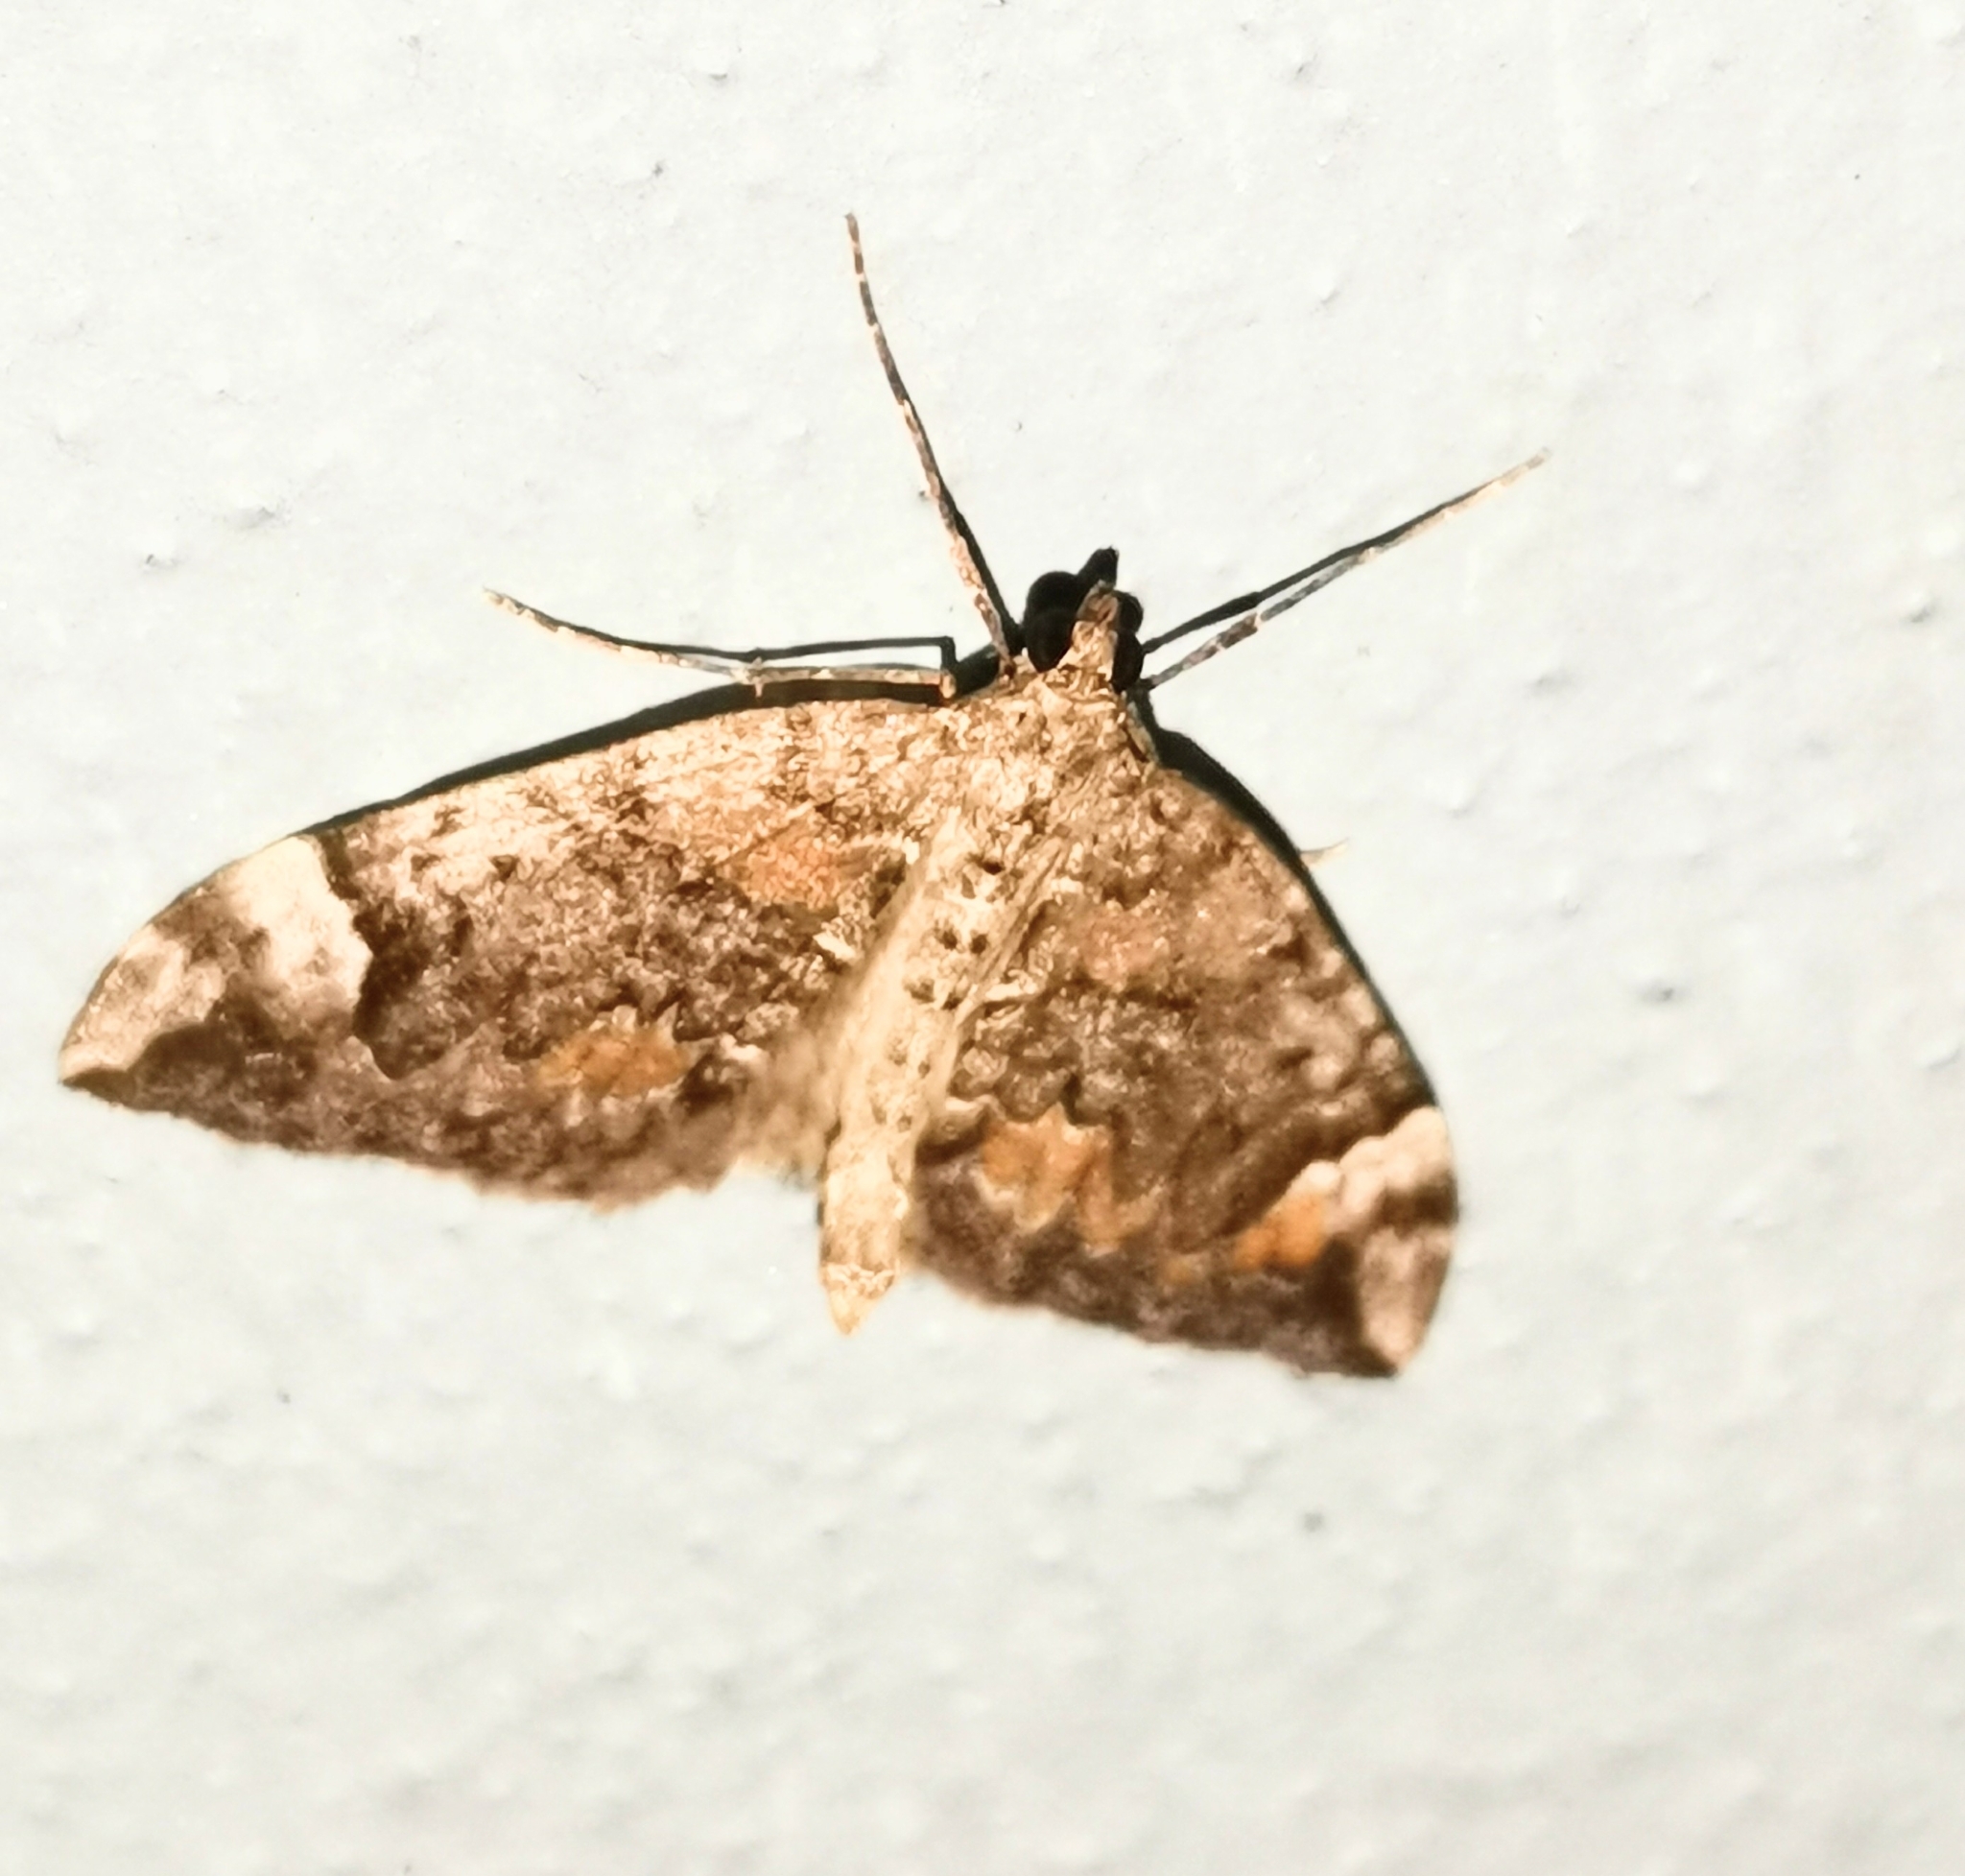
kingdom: Animalia
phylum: Arthropoda
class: Insecta
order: Lepidoptera
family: Geometridae
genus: Dysstroma
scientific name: Dysstroma citrata
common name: Dark marbled carpet
